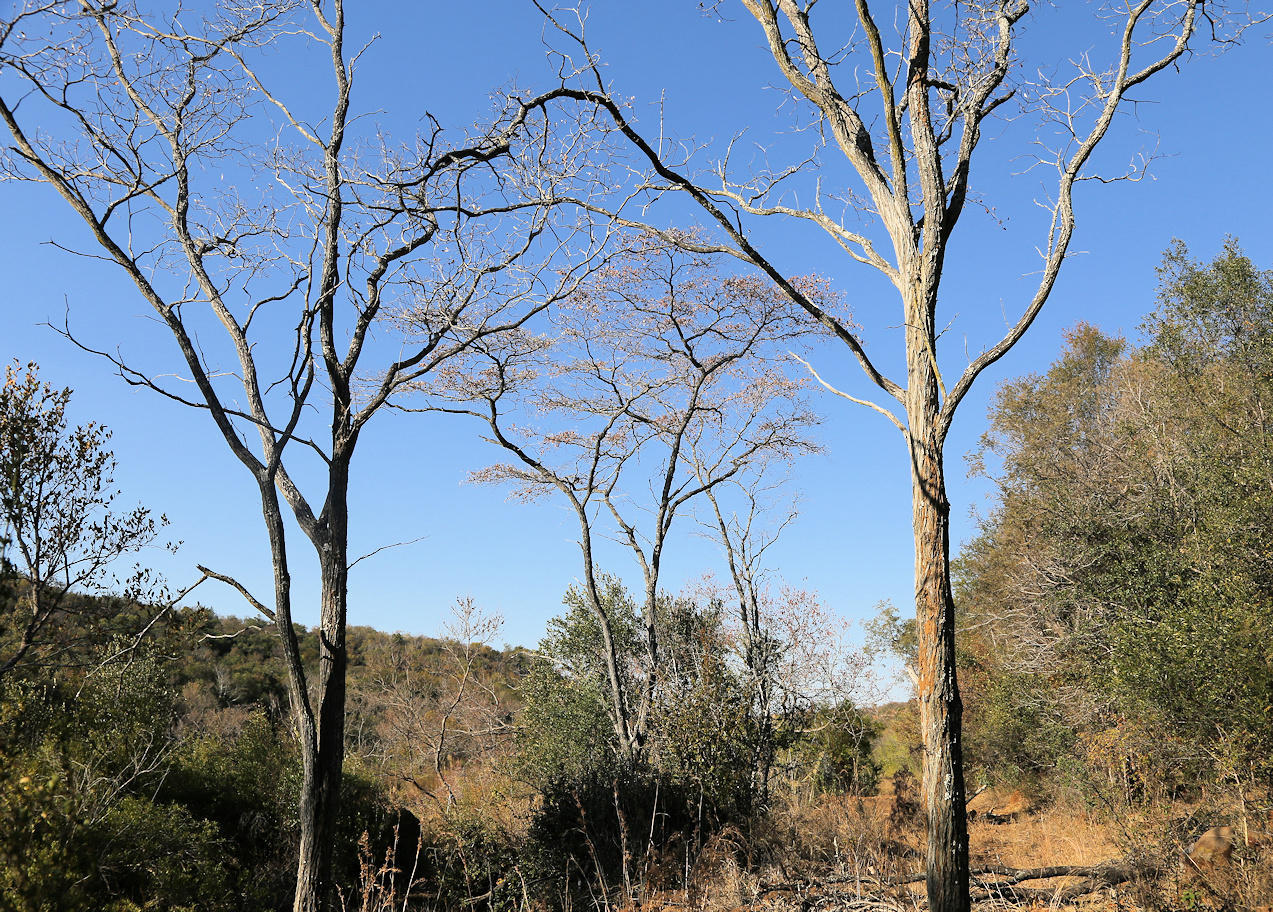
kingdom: Plantae
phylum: Tracheophyta
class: Magnoliopsida
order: Myrtales
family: Combretaceae
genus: Terminalia
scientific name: Terminalia sericea
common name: Clusterleaf
